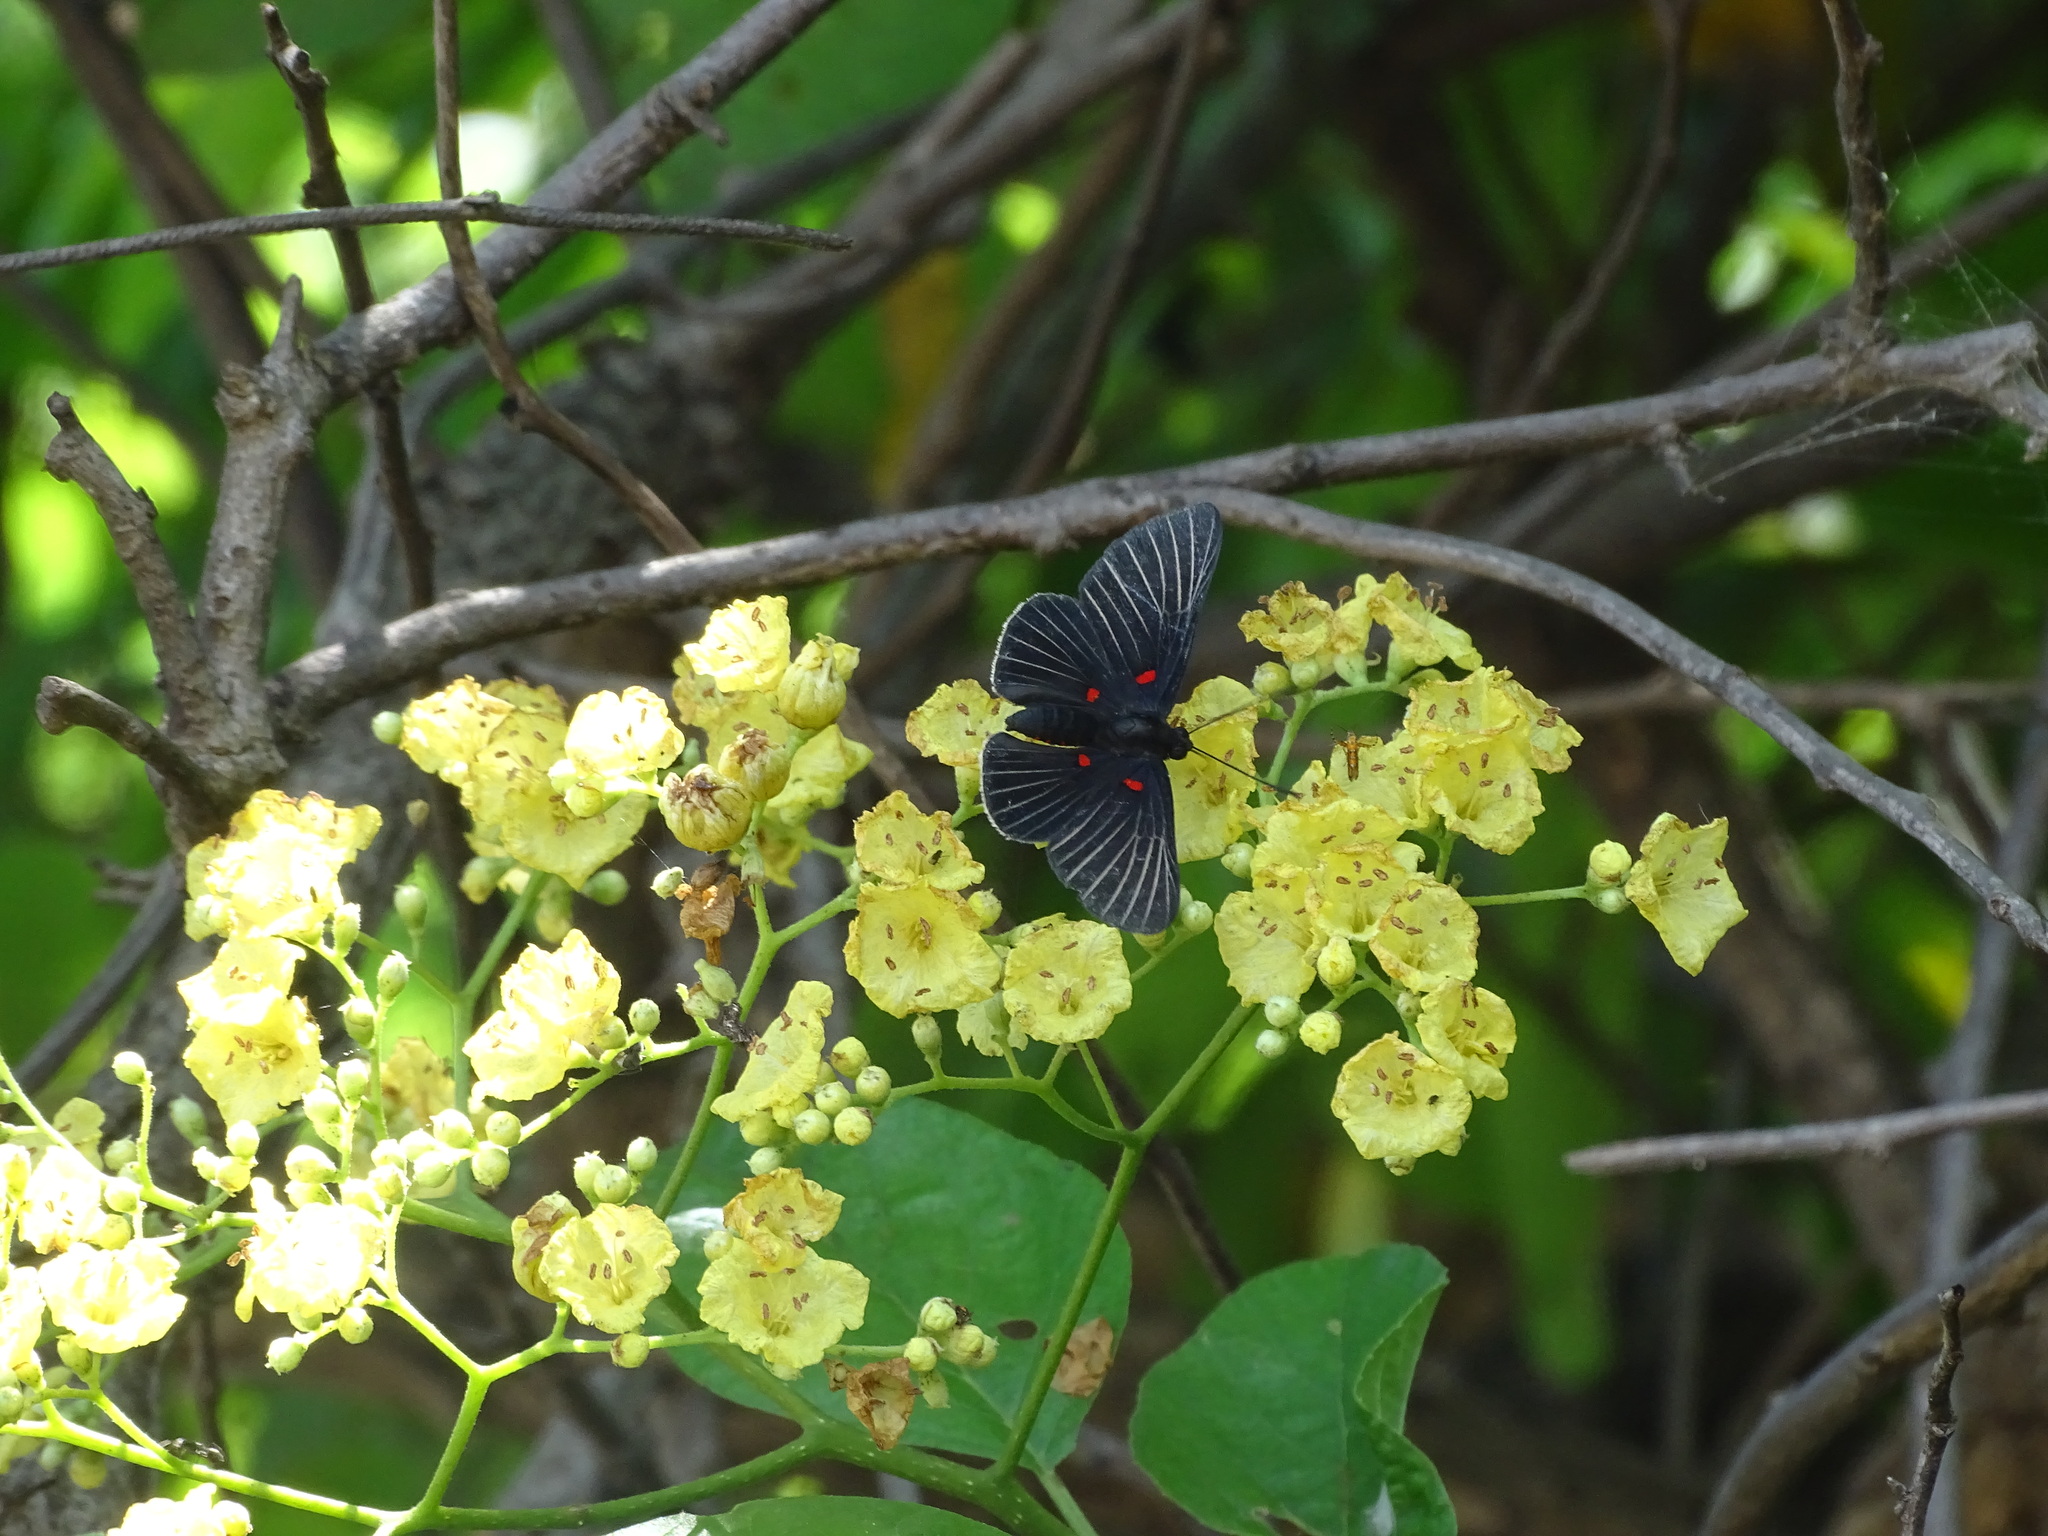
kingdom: Animalia
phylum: Arthropoda
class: Insecta
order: Lepidoptera
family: Lycaenidae
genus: Melanis
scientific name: Melanis
